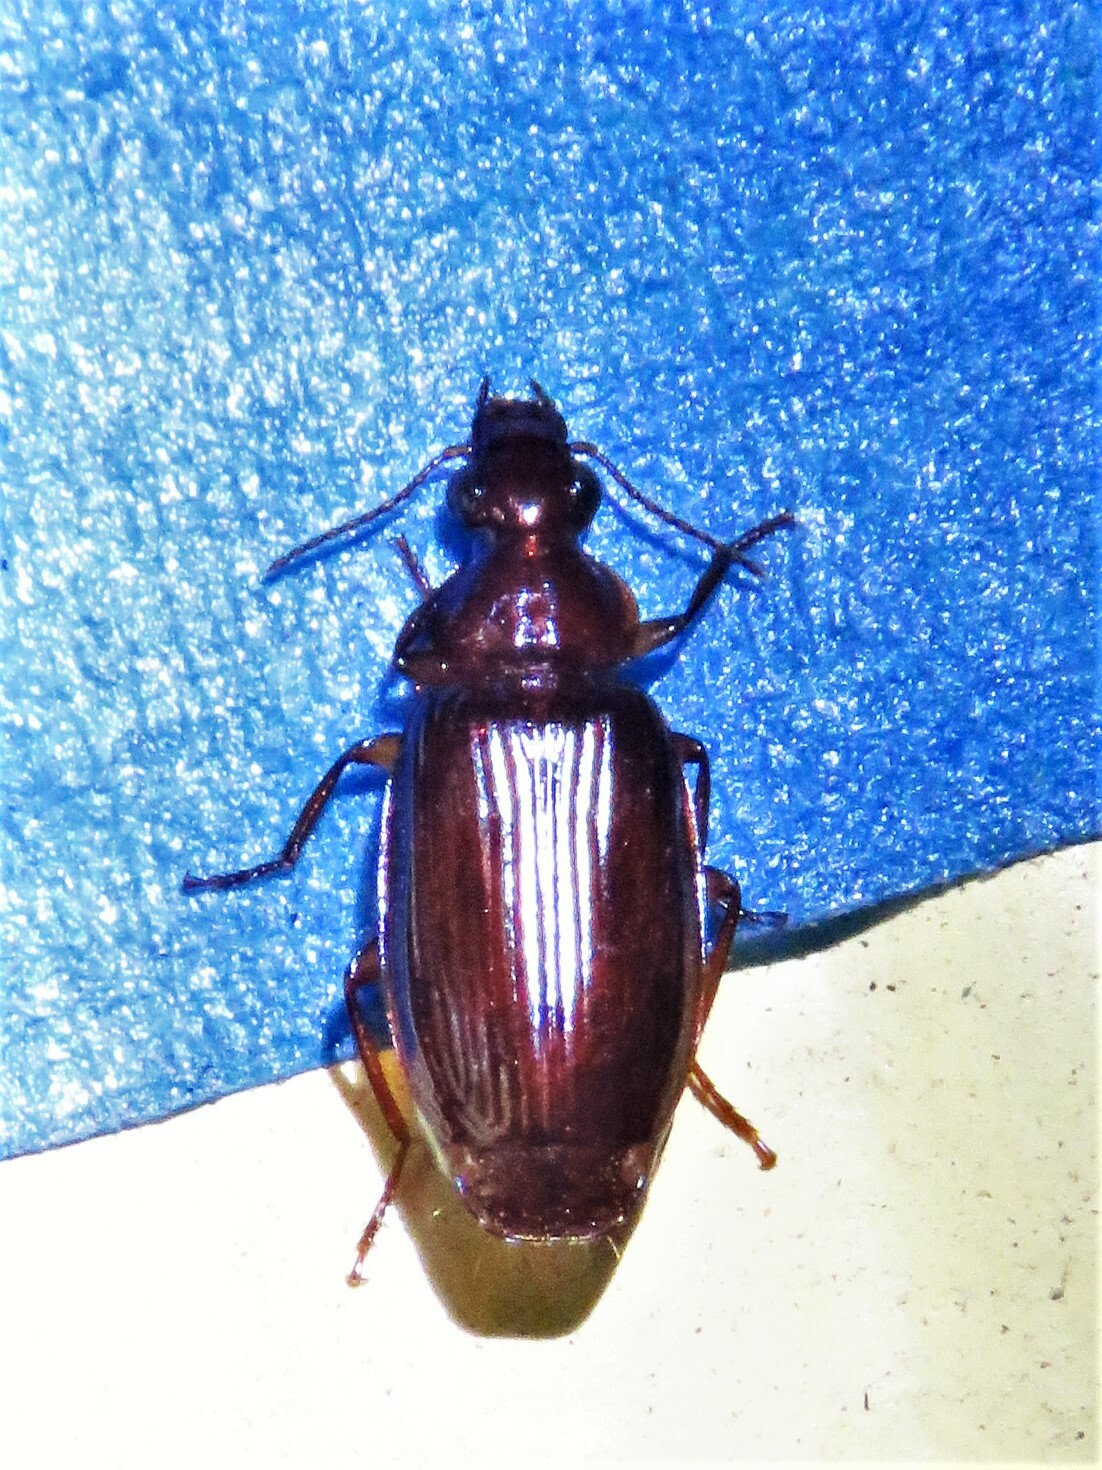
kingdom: Animalia
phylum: Arthropoda
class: Insecta
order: Coleoptera
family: Carabidae
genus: Plochionus
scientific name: Plochionus timidus
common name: Timid harp ground beetle
